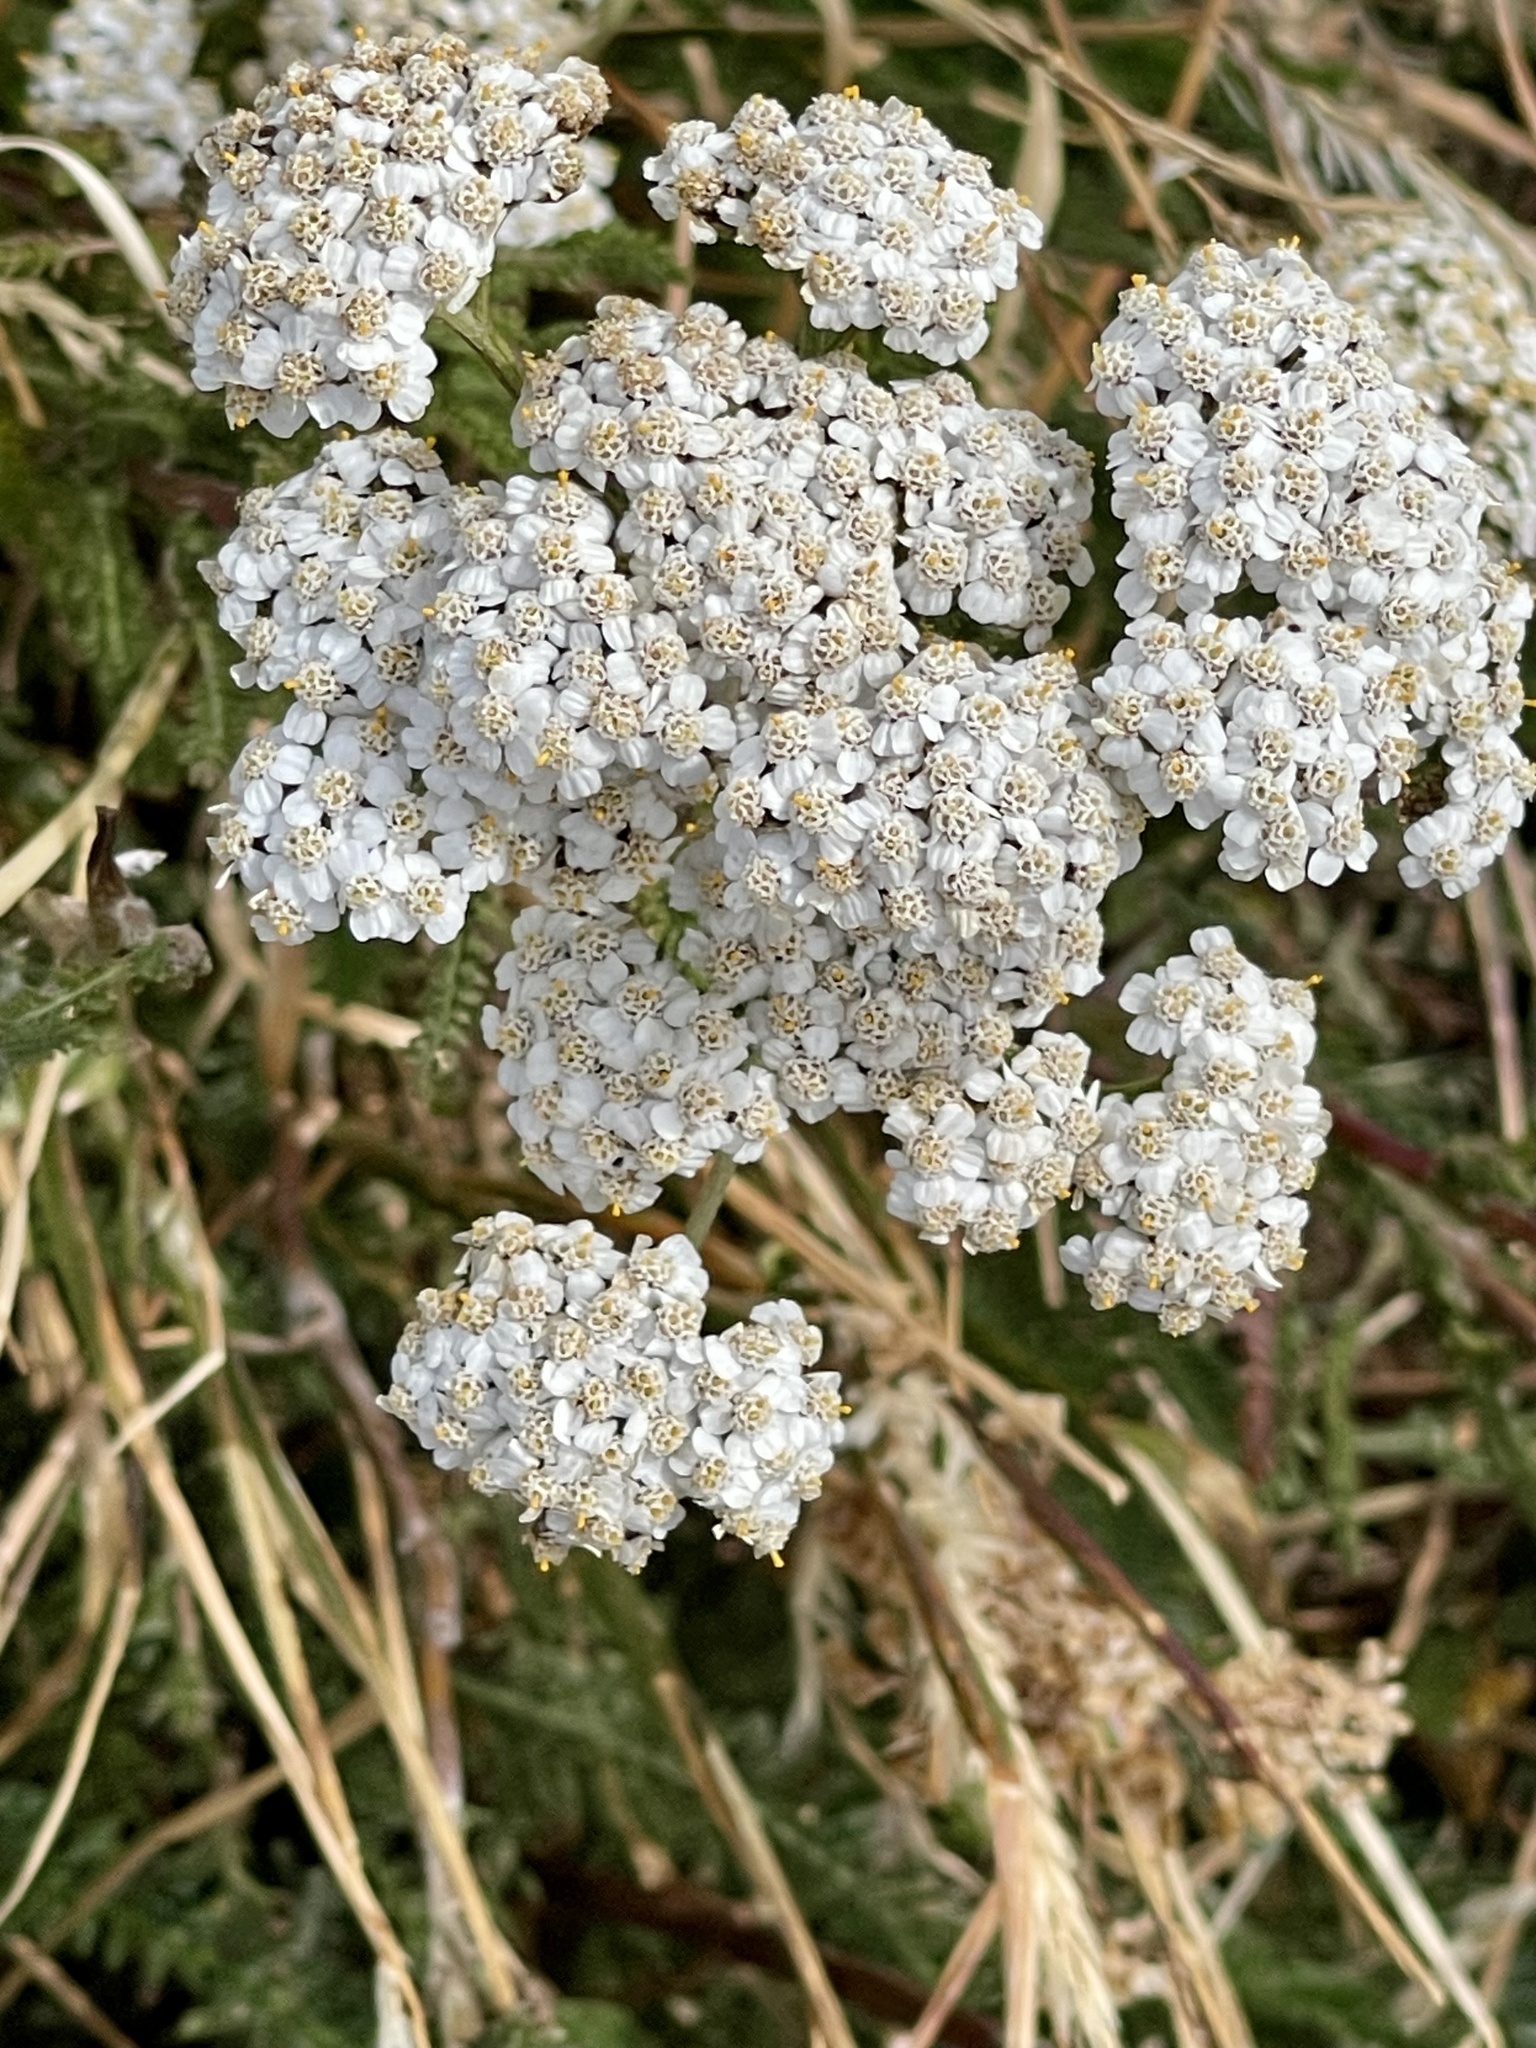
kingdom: Plantae
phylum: Tracheophyta
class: Magnoliopsida
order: Asterales
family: Asteraceae
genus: Achillea
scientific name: Achillea millefolium
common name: Yarrow
